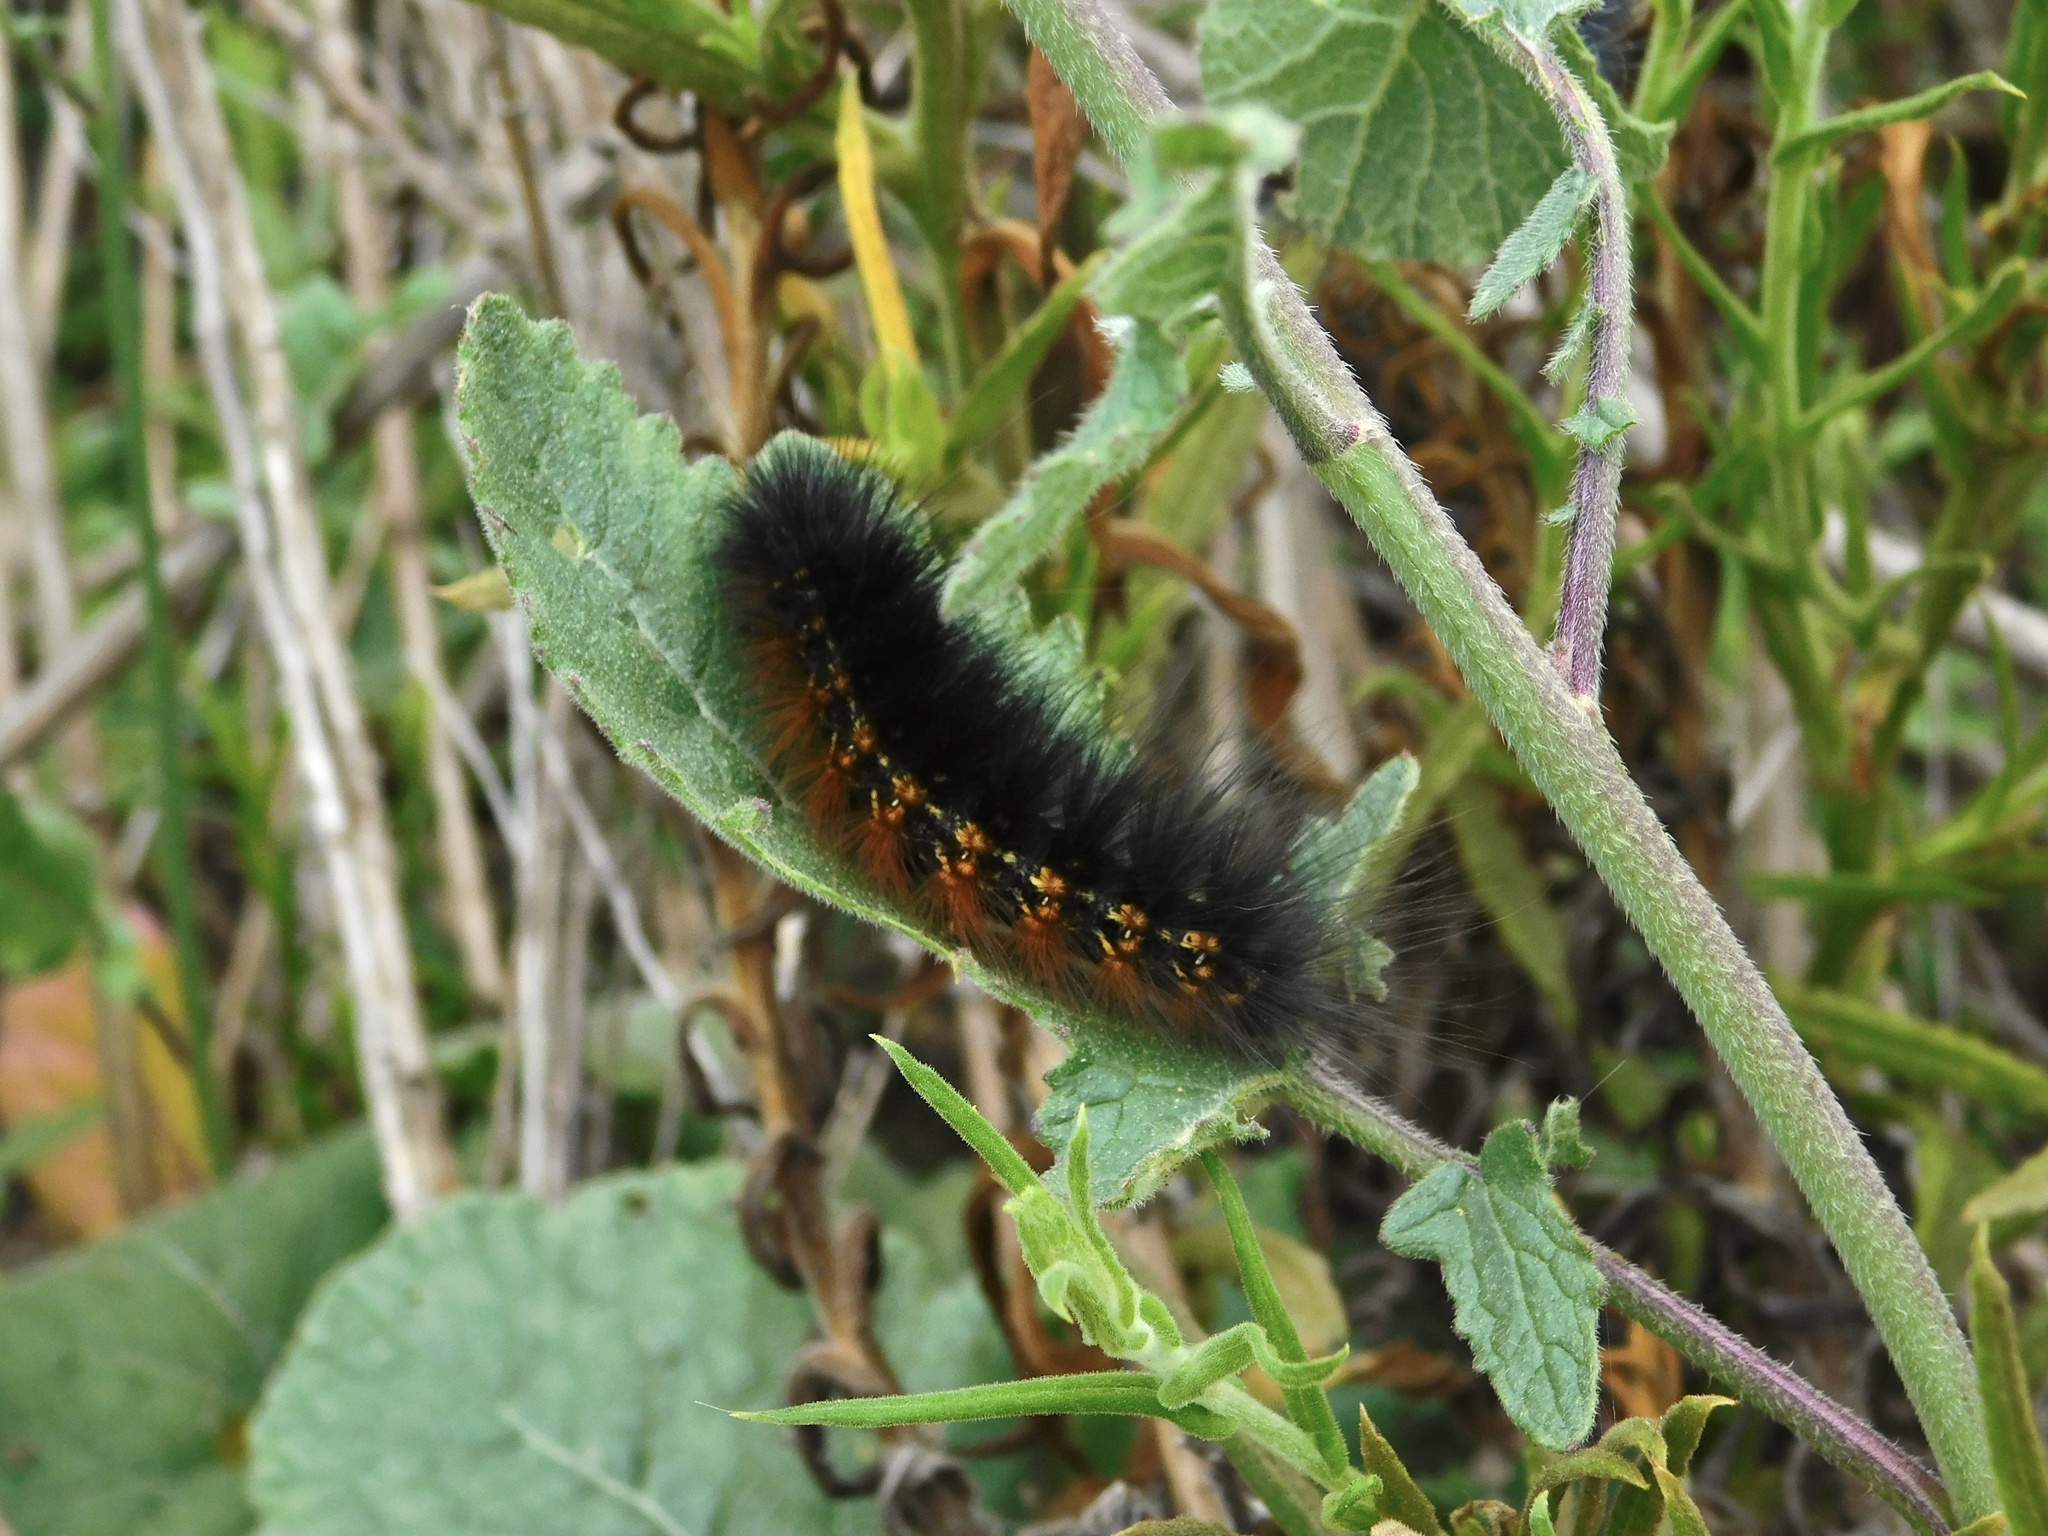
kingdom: Animalia
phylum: Arthropoda
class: Insecta
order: Lepidoptera
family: Erebidae
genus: Estigmene
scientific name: Estigmene acrea
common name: Salt marsh moth
